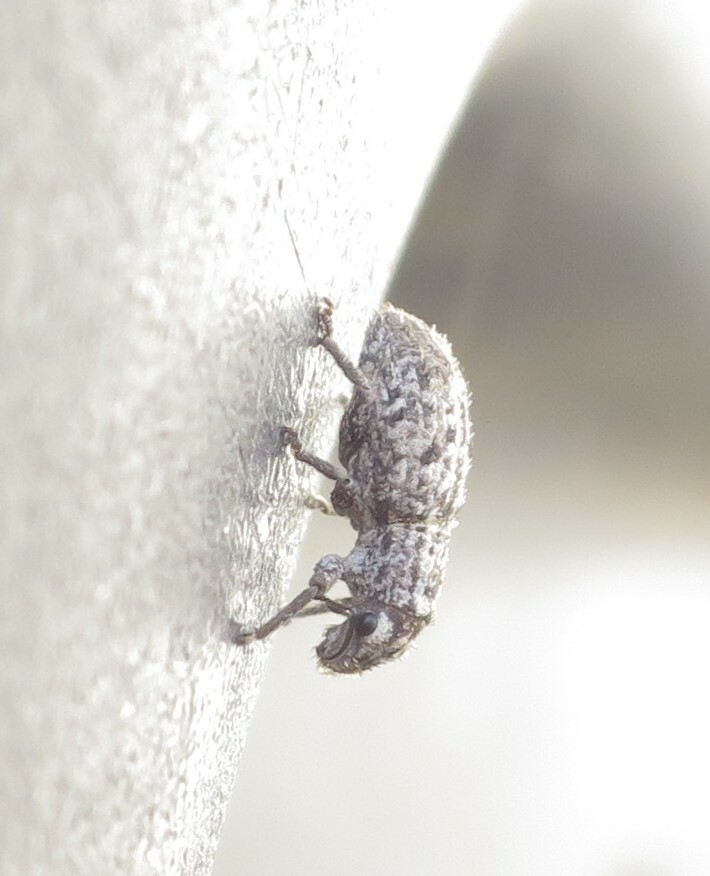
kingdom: Animalia
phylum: Arthropoda
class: Insecta
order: Coleoptera
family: Curculionidae
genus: Floresianus
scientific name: Floresianus sordidus
